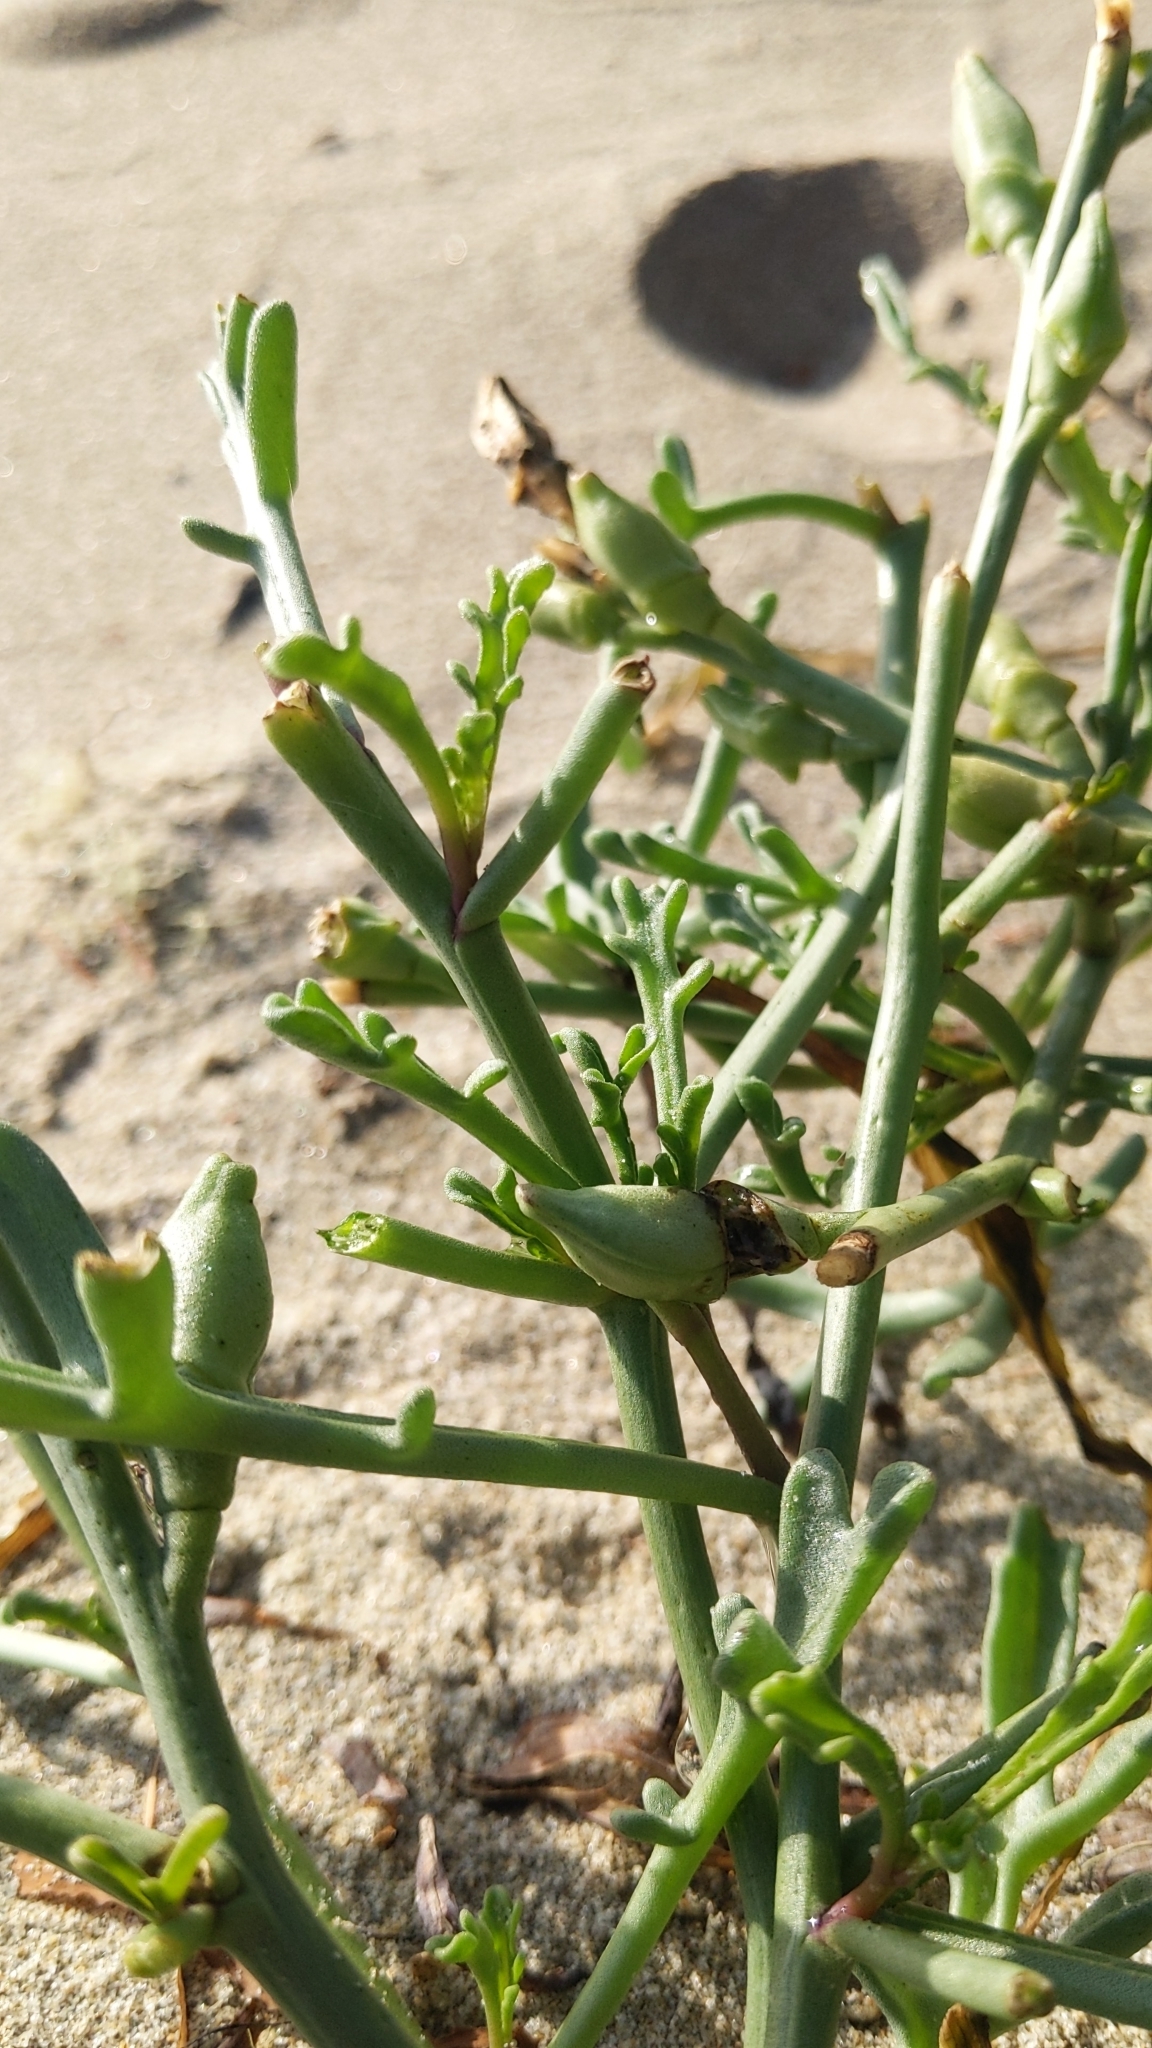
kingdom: Plantae
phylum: Tracheophyta
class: Magnoliopsida
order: Brassicales
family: Brassicaceae
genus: Cakile
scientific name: Cakile maritima
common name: Sea rocket
